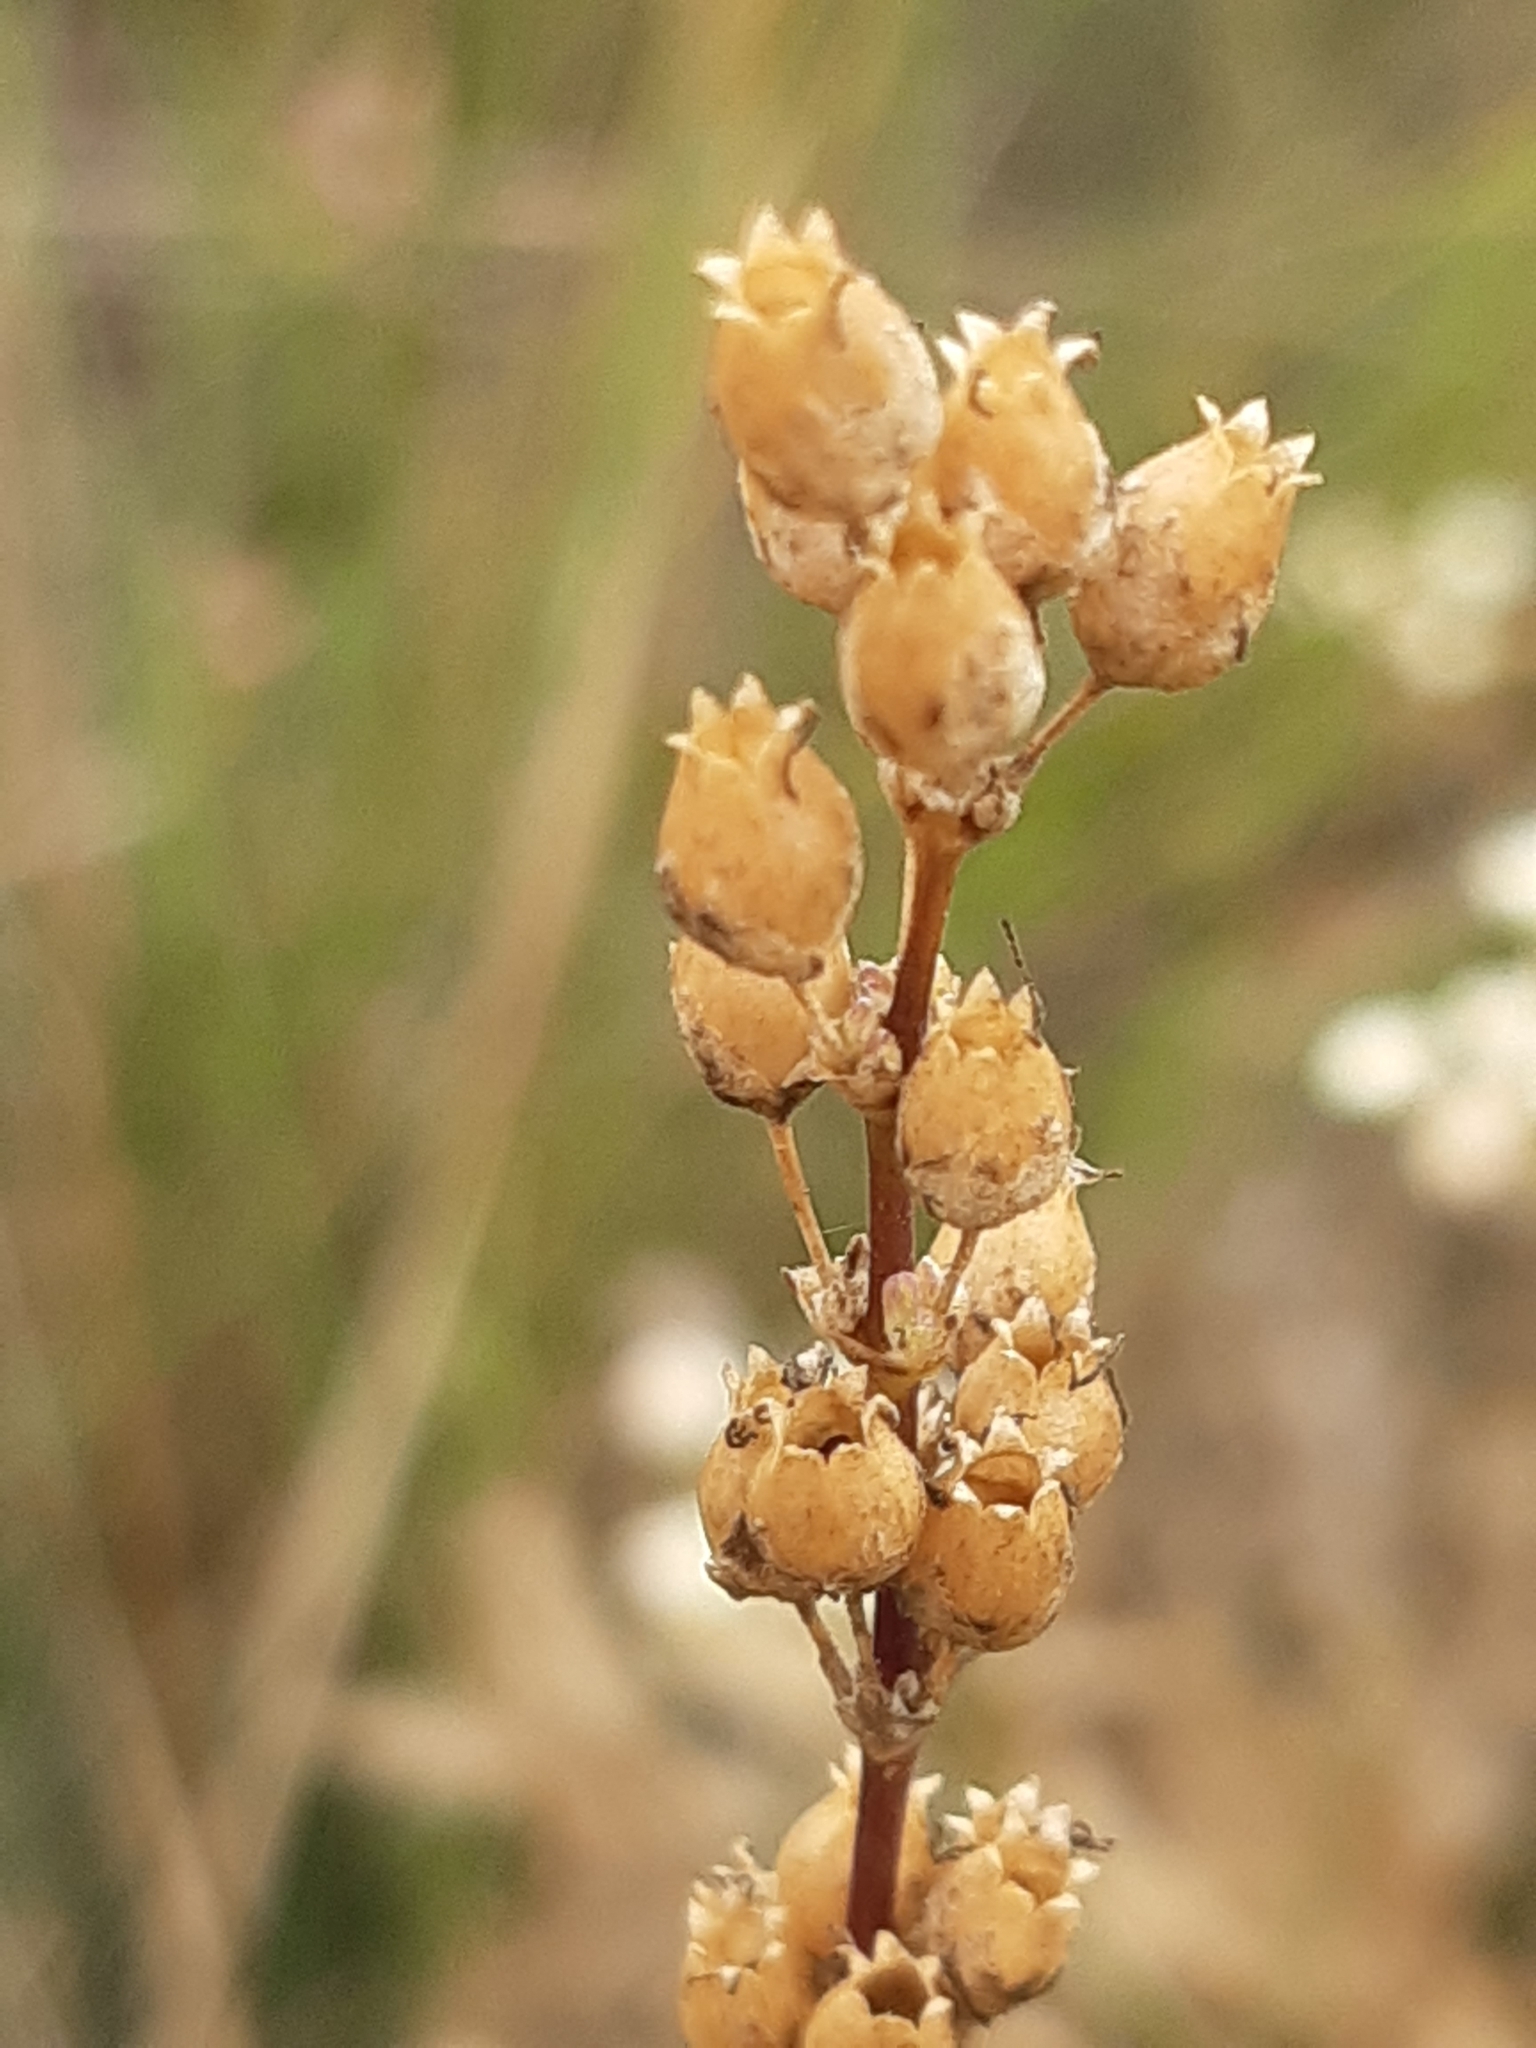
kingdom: Plantae
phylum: Tracheophyta
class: Magnoliopsida
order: Caryophyllales
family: Caryophyllaceae
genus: Silene
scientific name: Silene otites
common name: Spanish catchfly
